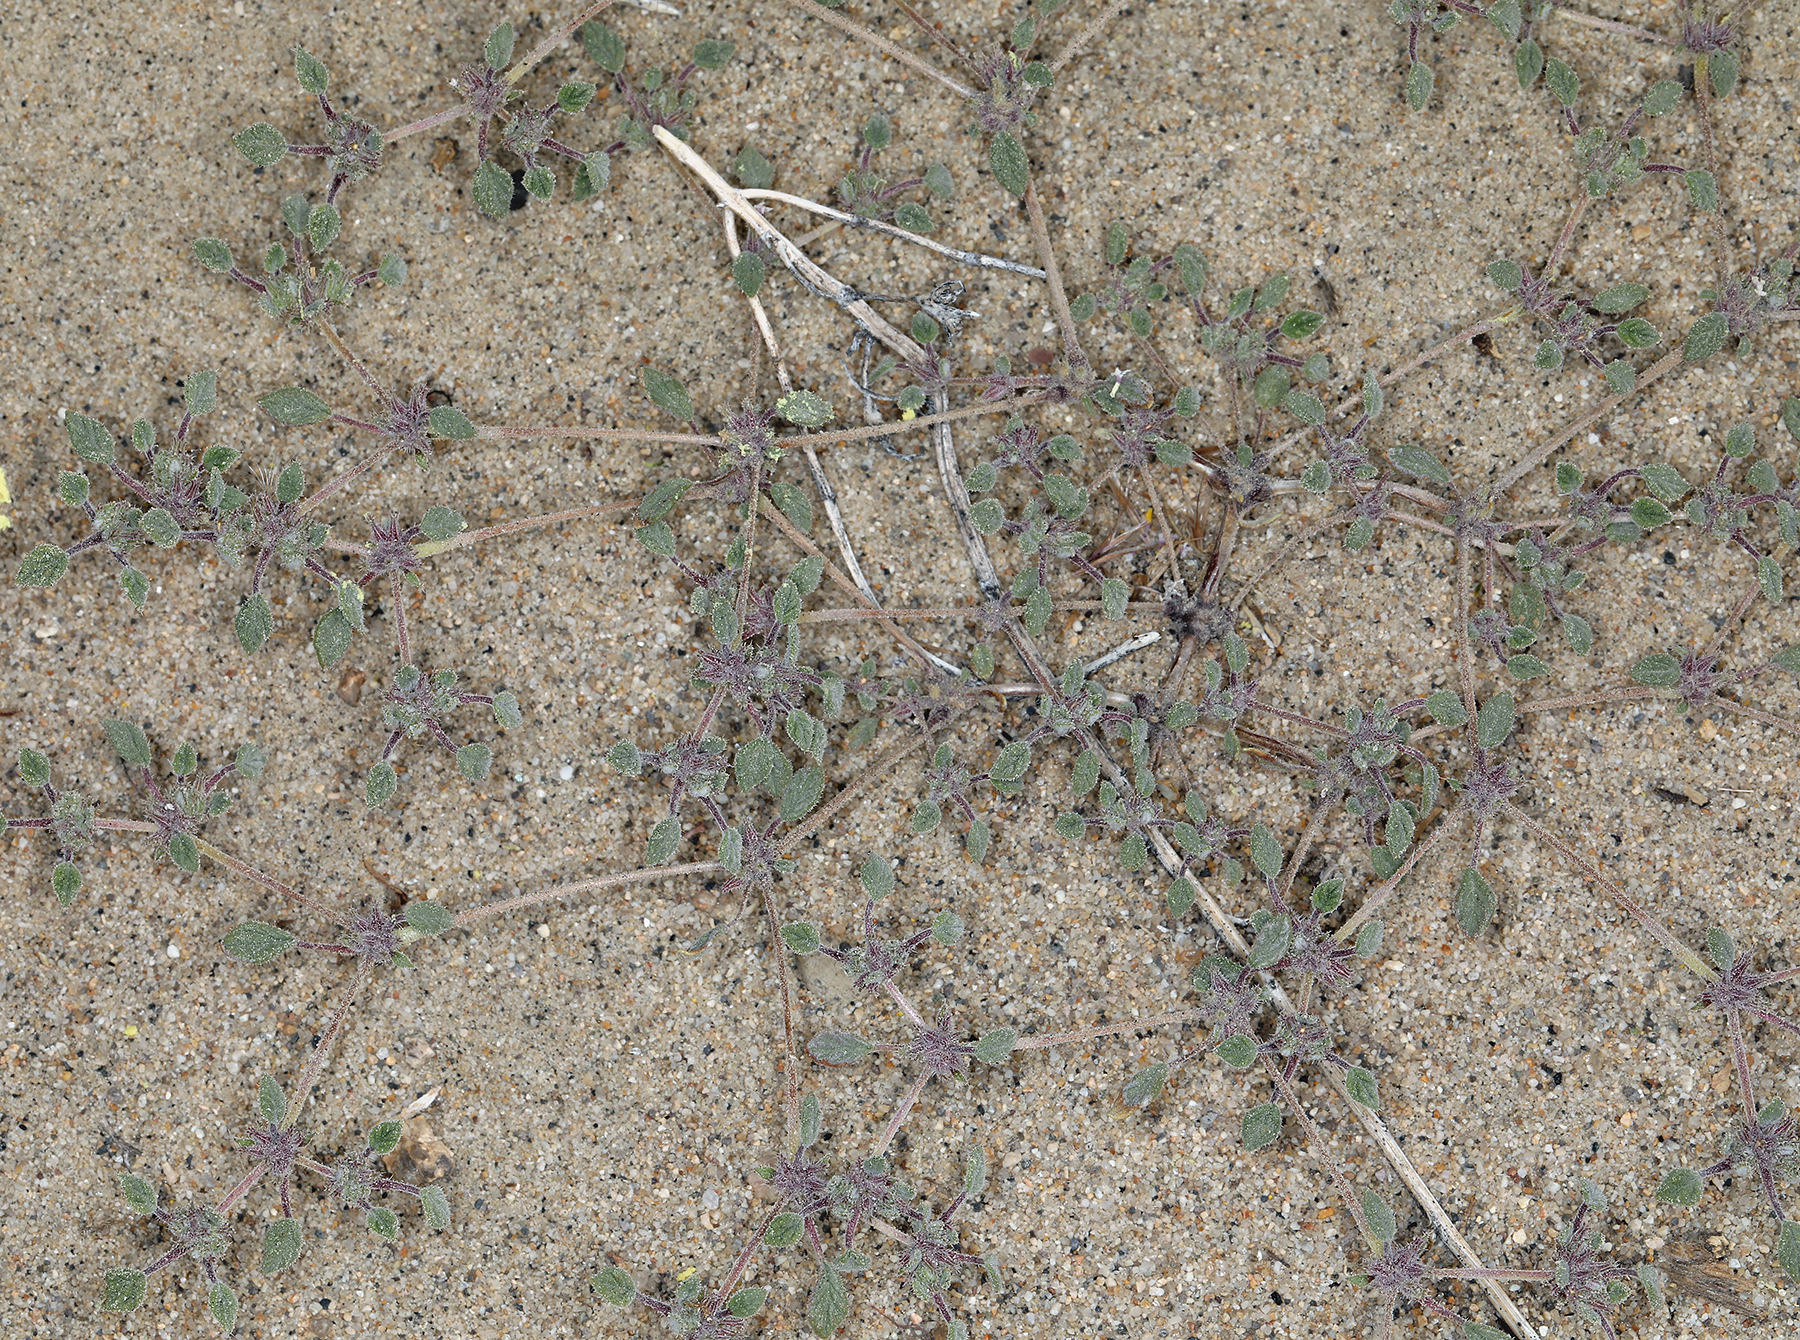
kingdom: Plantae
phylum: Tracheophyta
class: Magnoliopsida
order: Boraginales
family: Ehretiaceae
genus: Tiquilia
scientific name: Tiquilia nuttallii
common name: Rosette tiquilia
